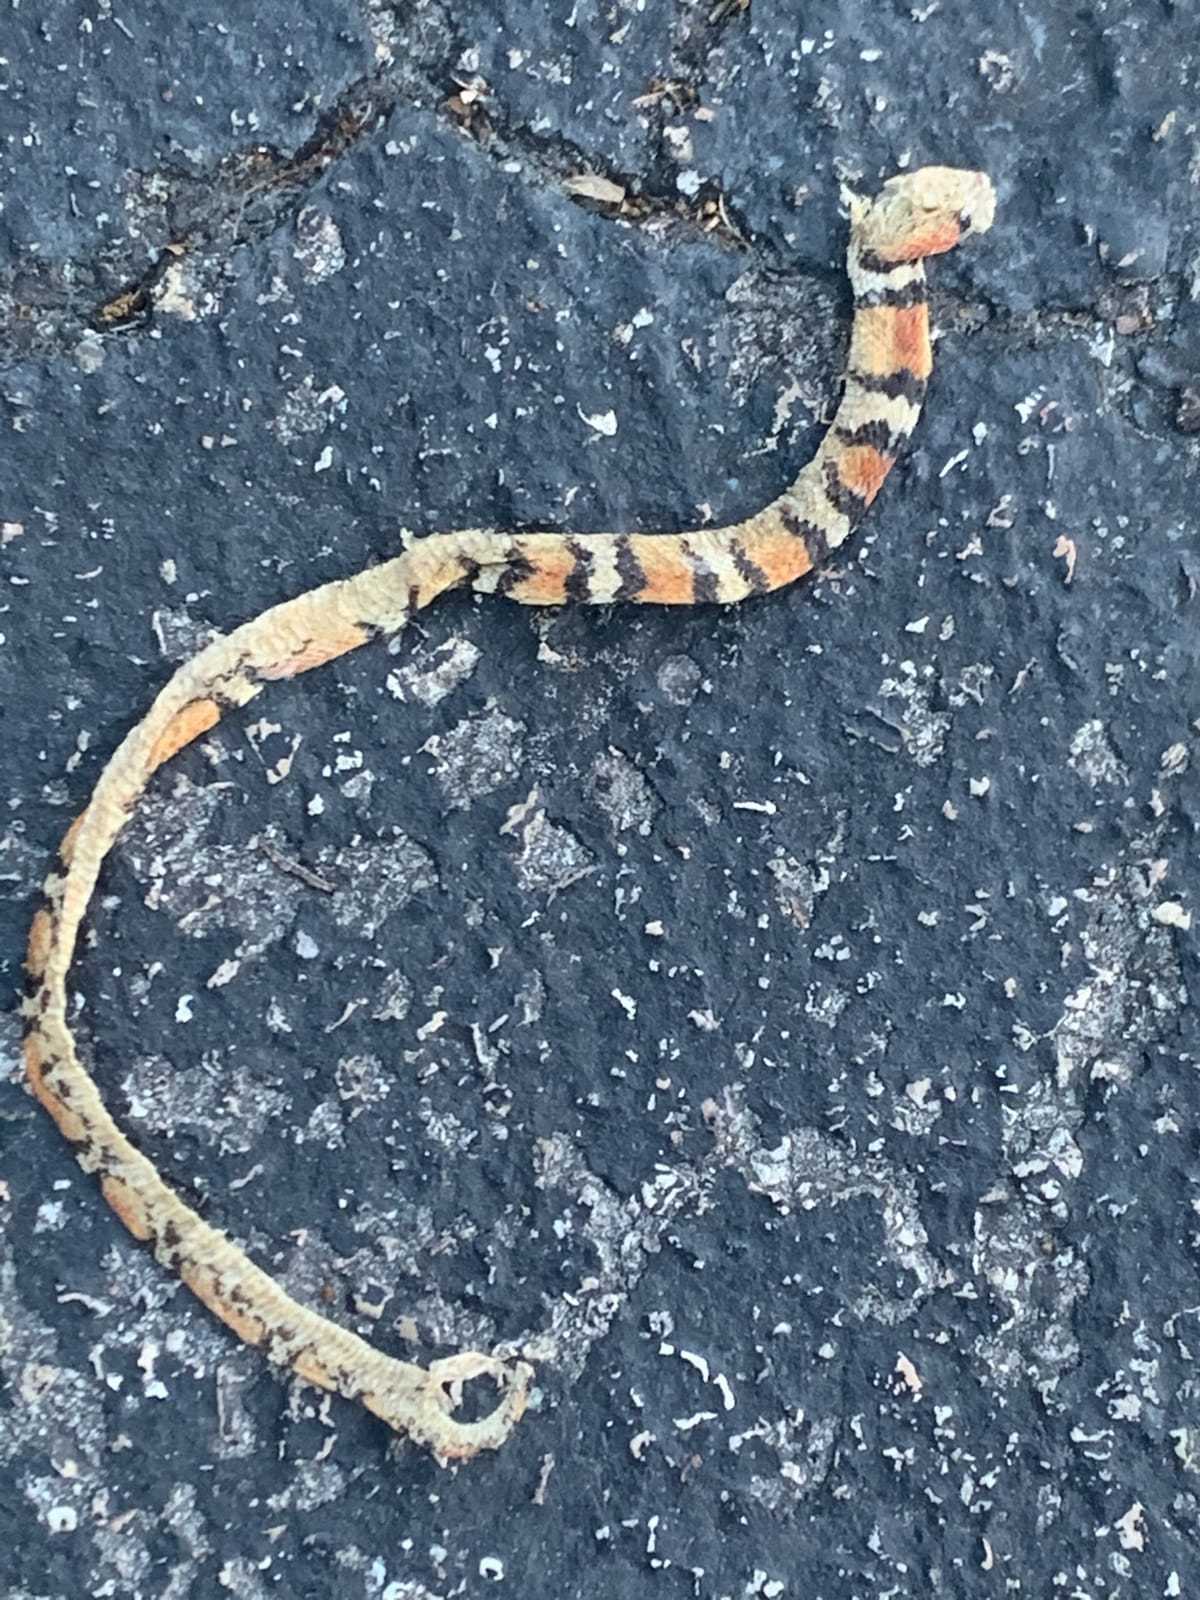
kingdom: Animalia
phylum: Chordata
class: Squamata
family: Colubridae
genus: Cemophora
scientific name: Cemophora coccinea
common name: Scarlet snake
